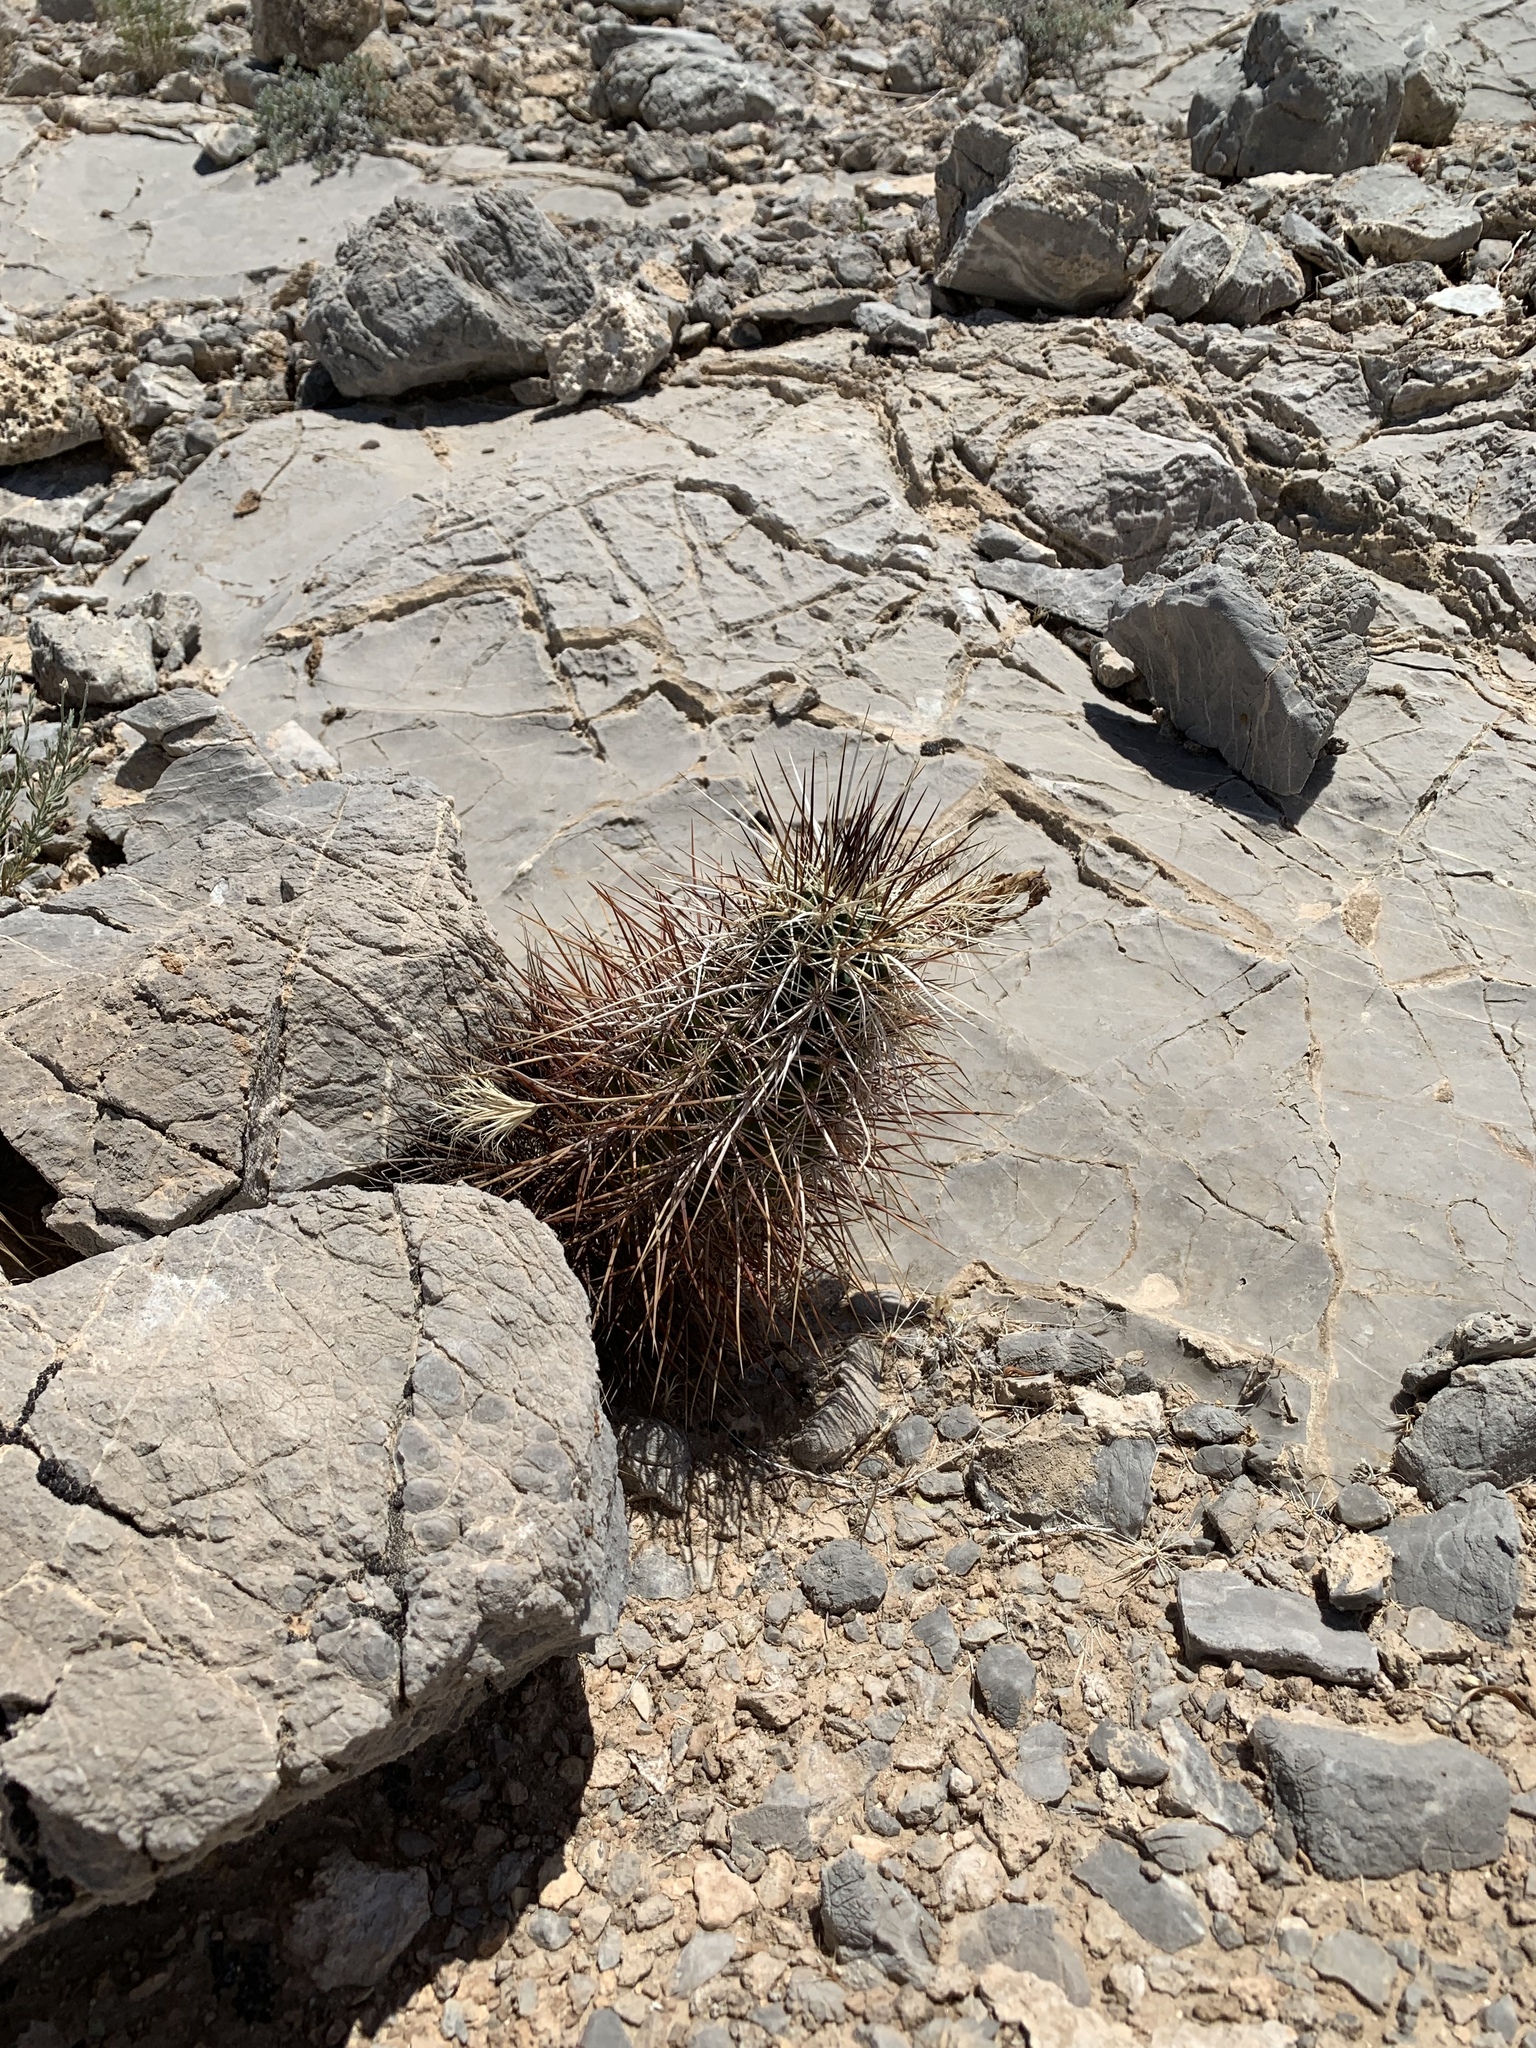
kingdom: Plantae
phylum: Tracheophyta
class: Magnoliopsida
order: Caryophyllales
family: Cactaceae
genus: Echinocereus
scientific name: Echinocereus engelmannii
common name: Engelmann's hedgehog cactus
